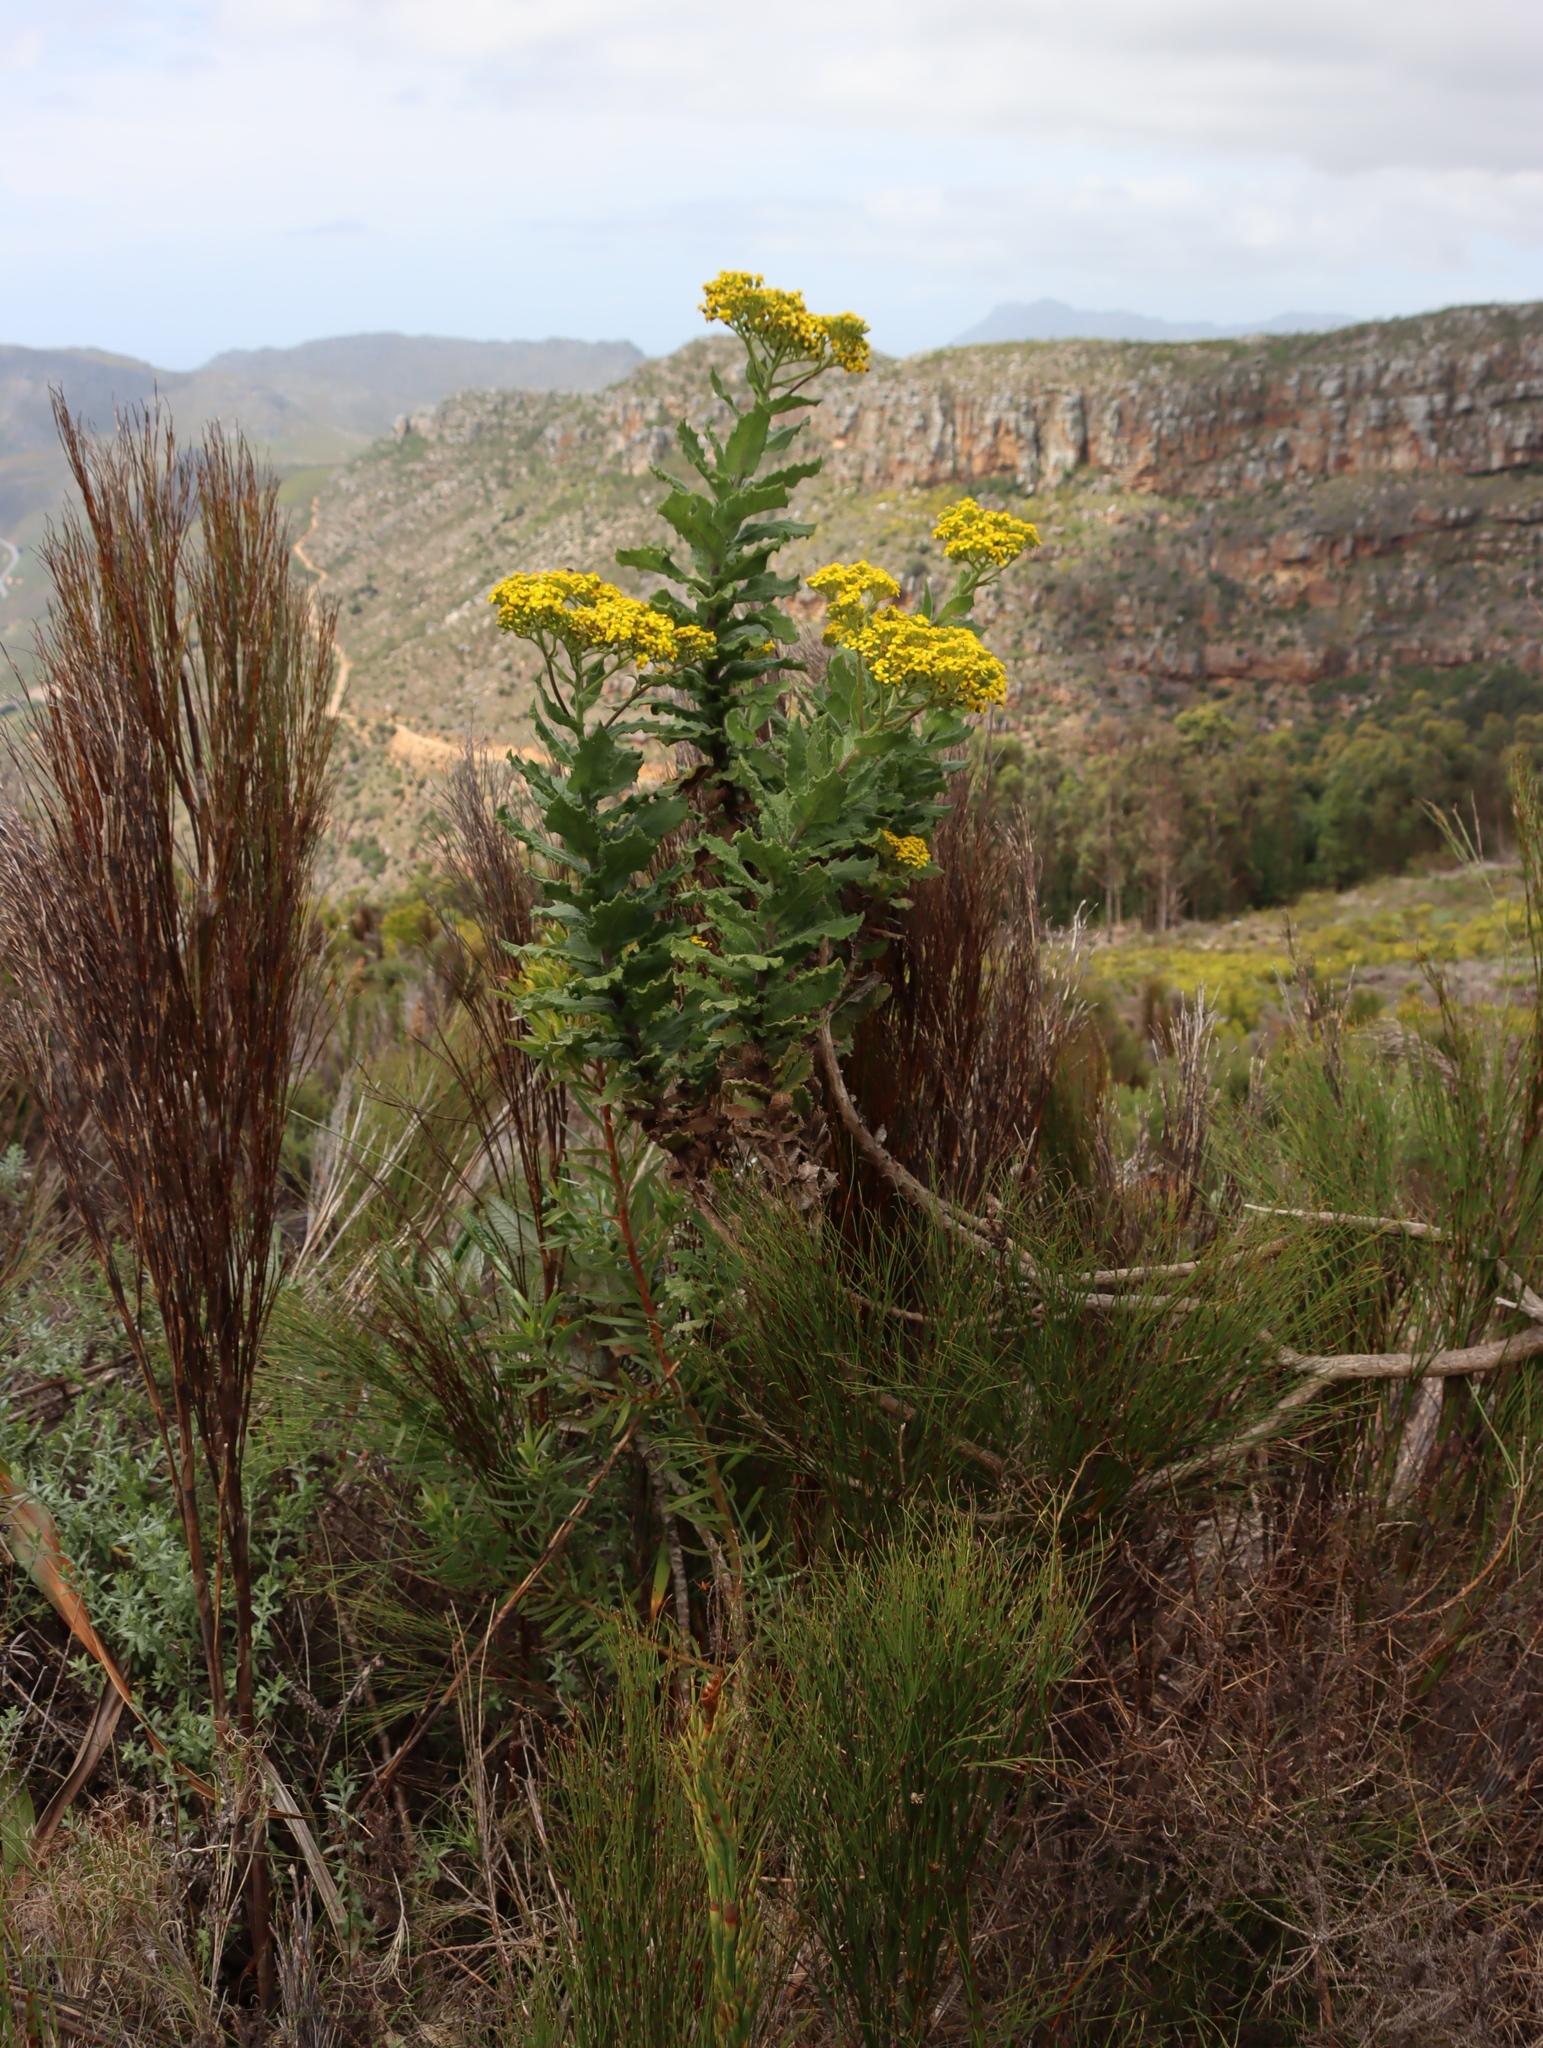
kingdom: Plantae
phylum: Tracheophyta
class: Magnoliopsida
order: Asterales
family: Asteraceae
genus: Senecio
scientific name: Senecio rigidus
